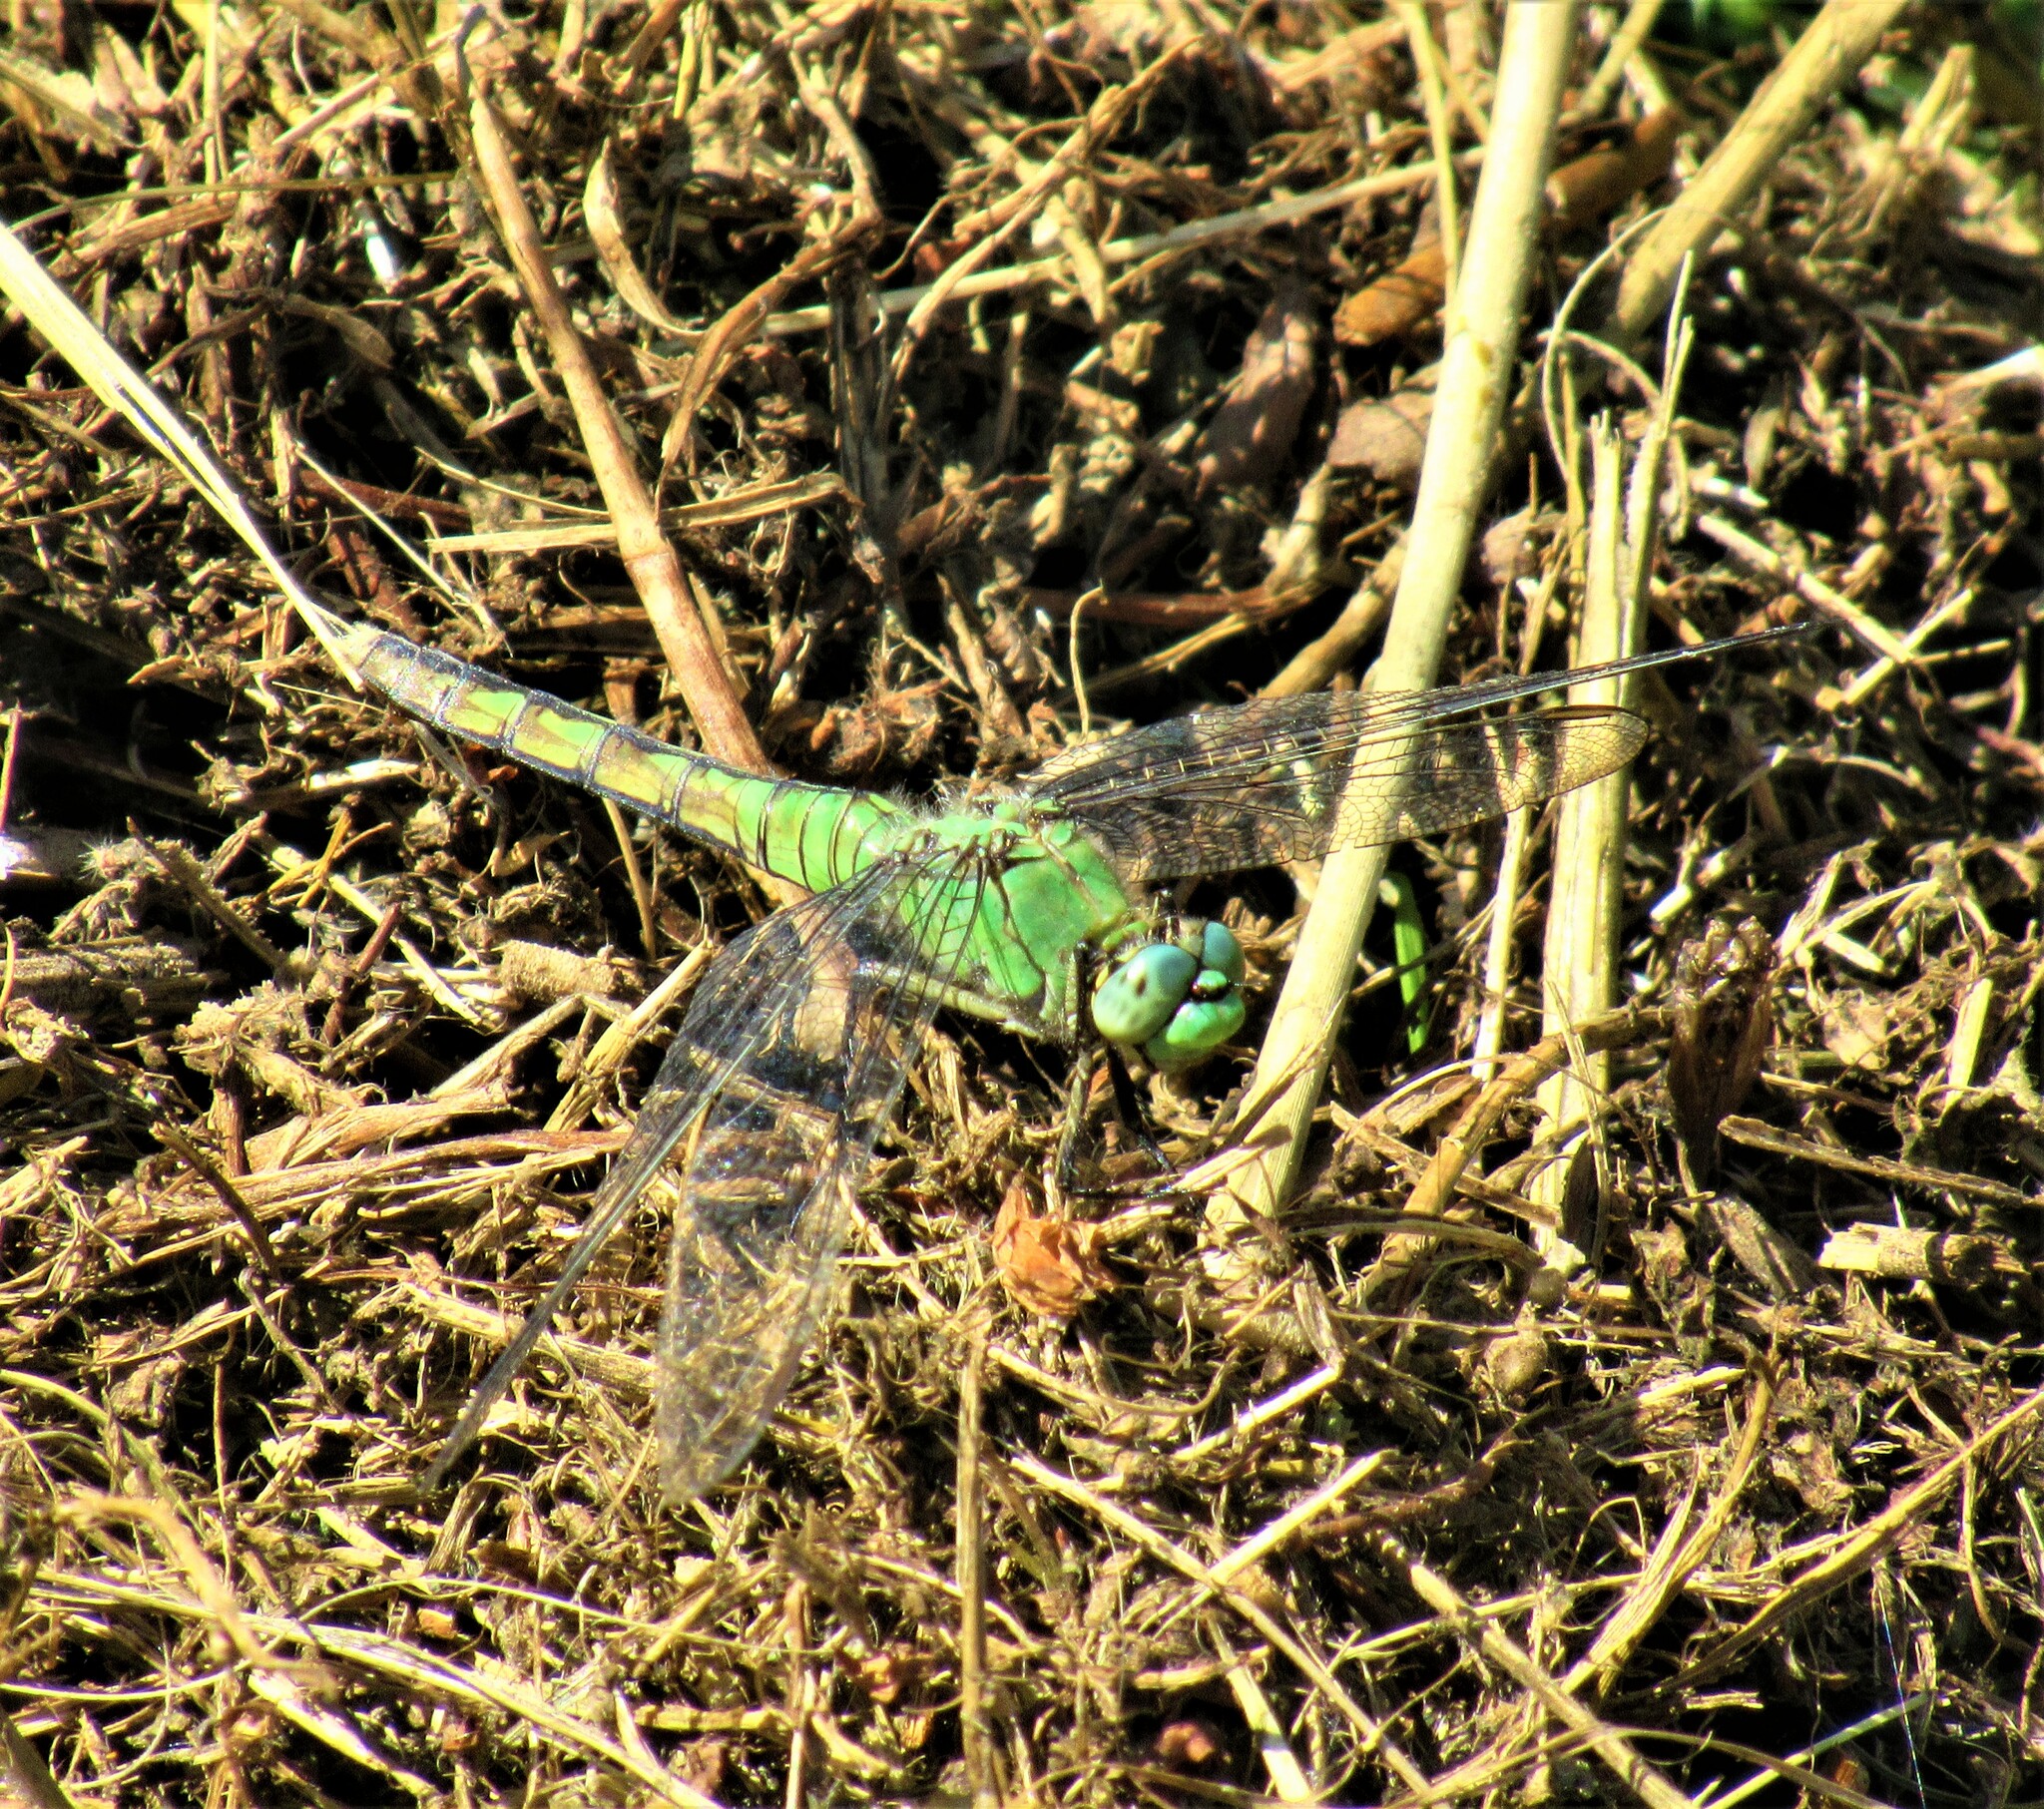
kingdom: Animalia
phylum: Arthropoda
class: Insecta
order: Odonata
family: Libellulidae
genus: Erythemis
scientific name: Erythemis collocata
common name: Western pondhawk
